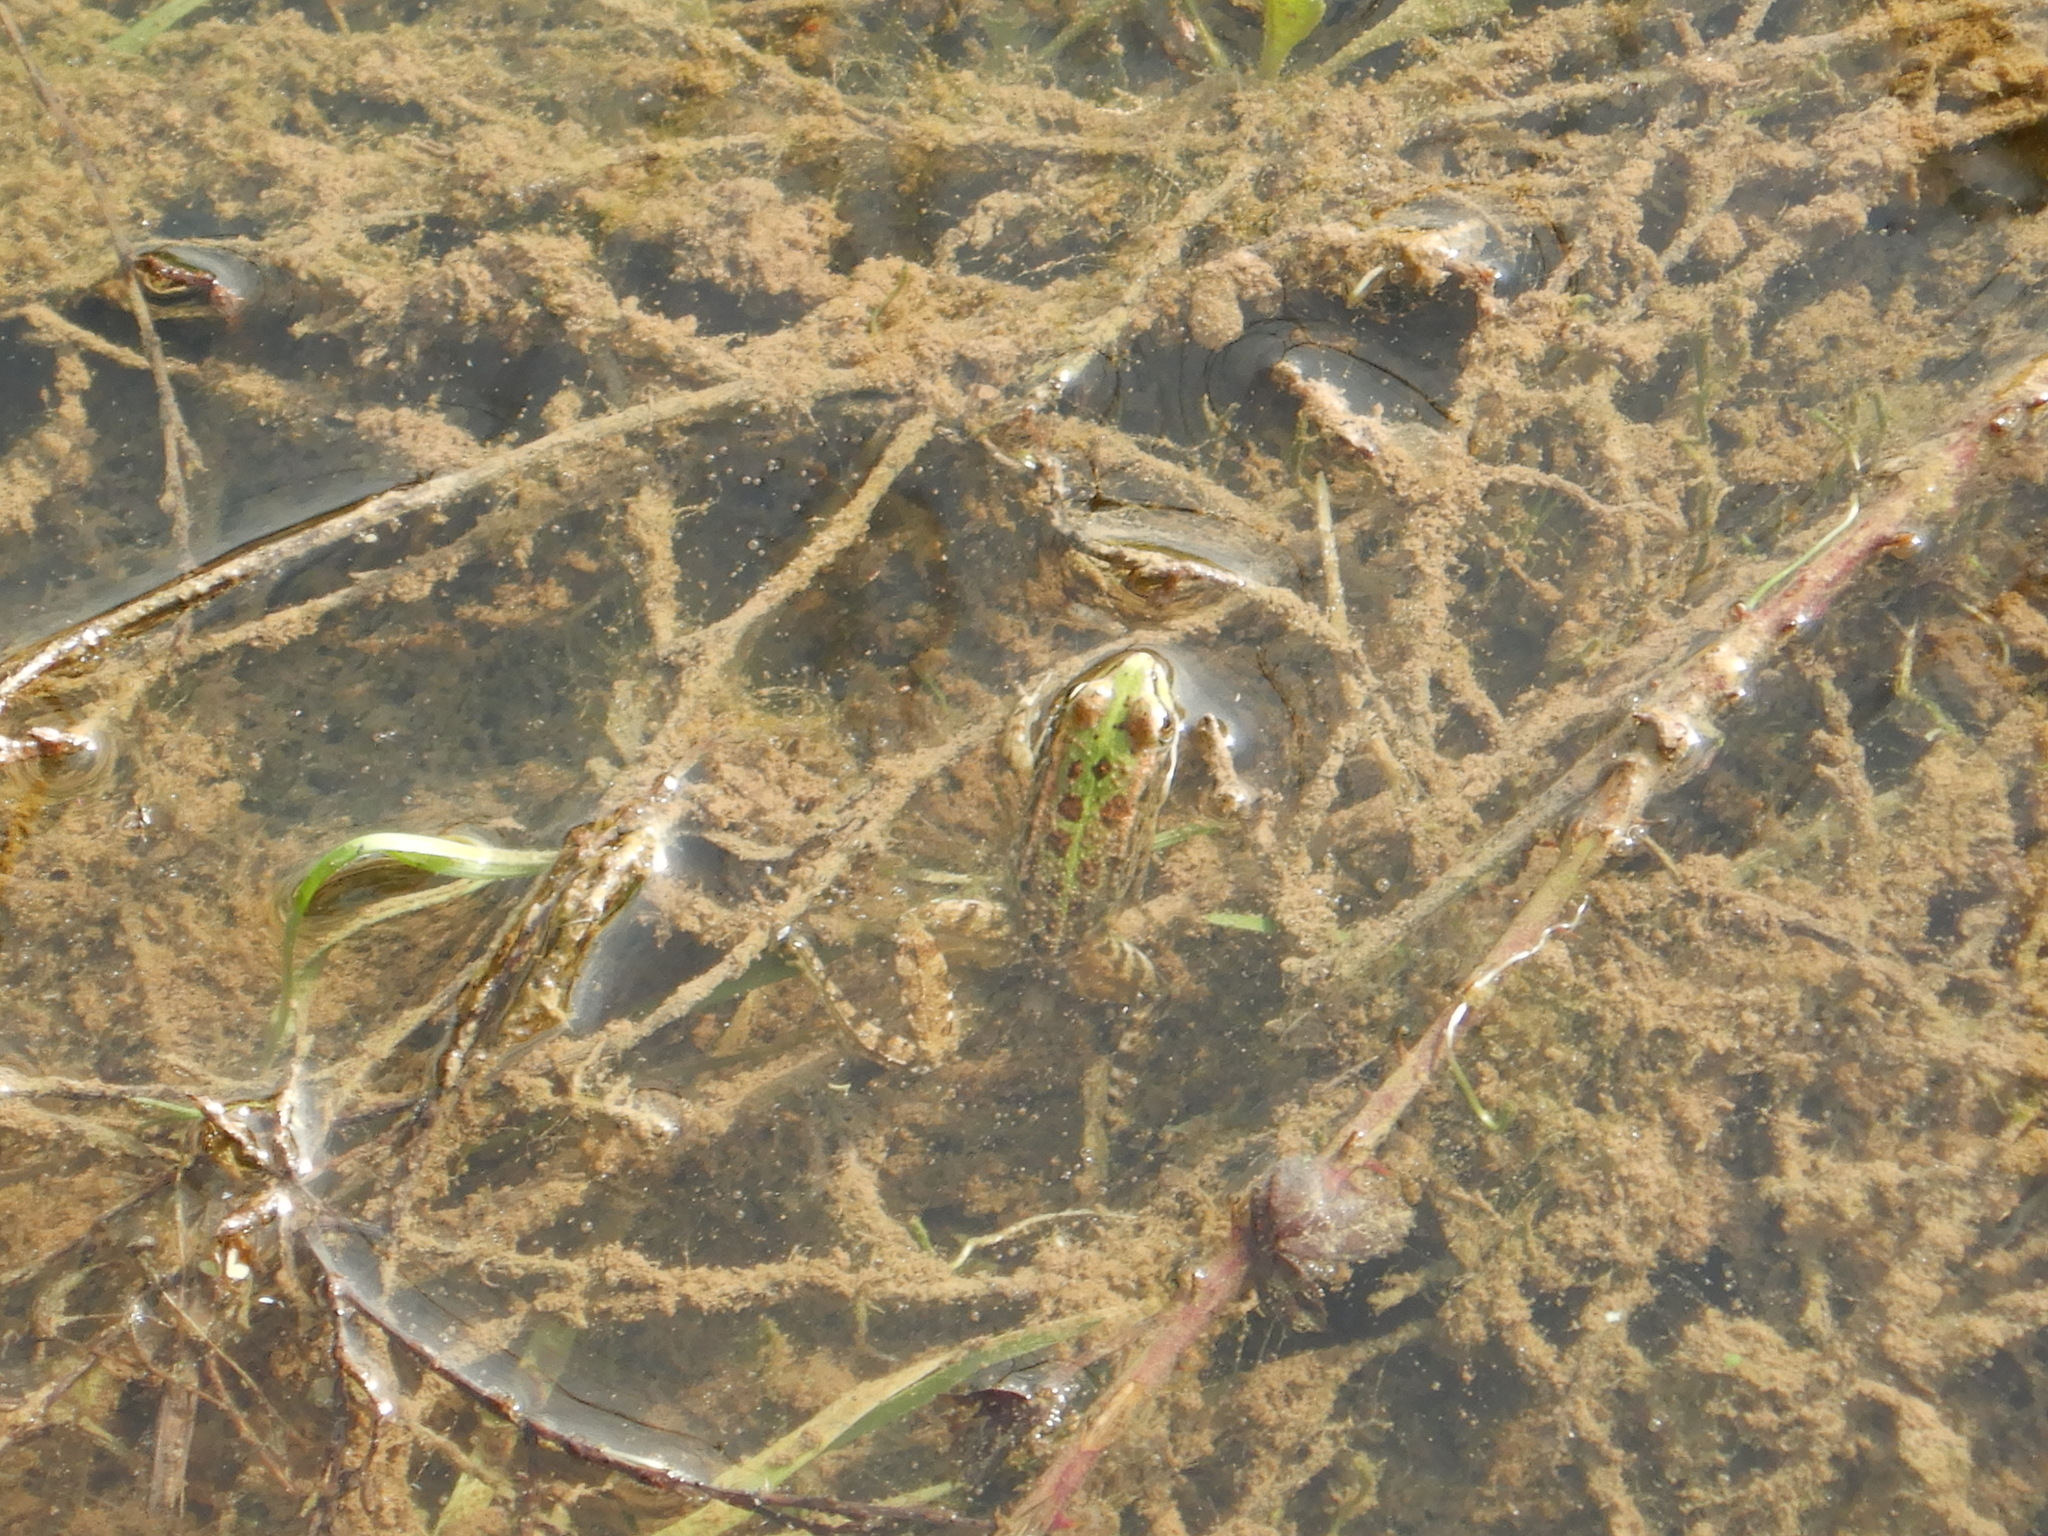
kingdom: Animalia
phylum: Chordata
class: Amphibia
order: Anura
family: Ranidae
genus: Pelophylax
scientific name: Pelophylax perezi
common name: Perez's frog
